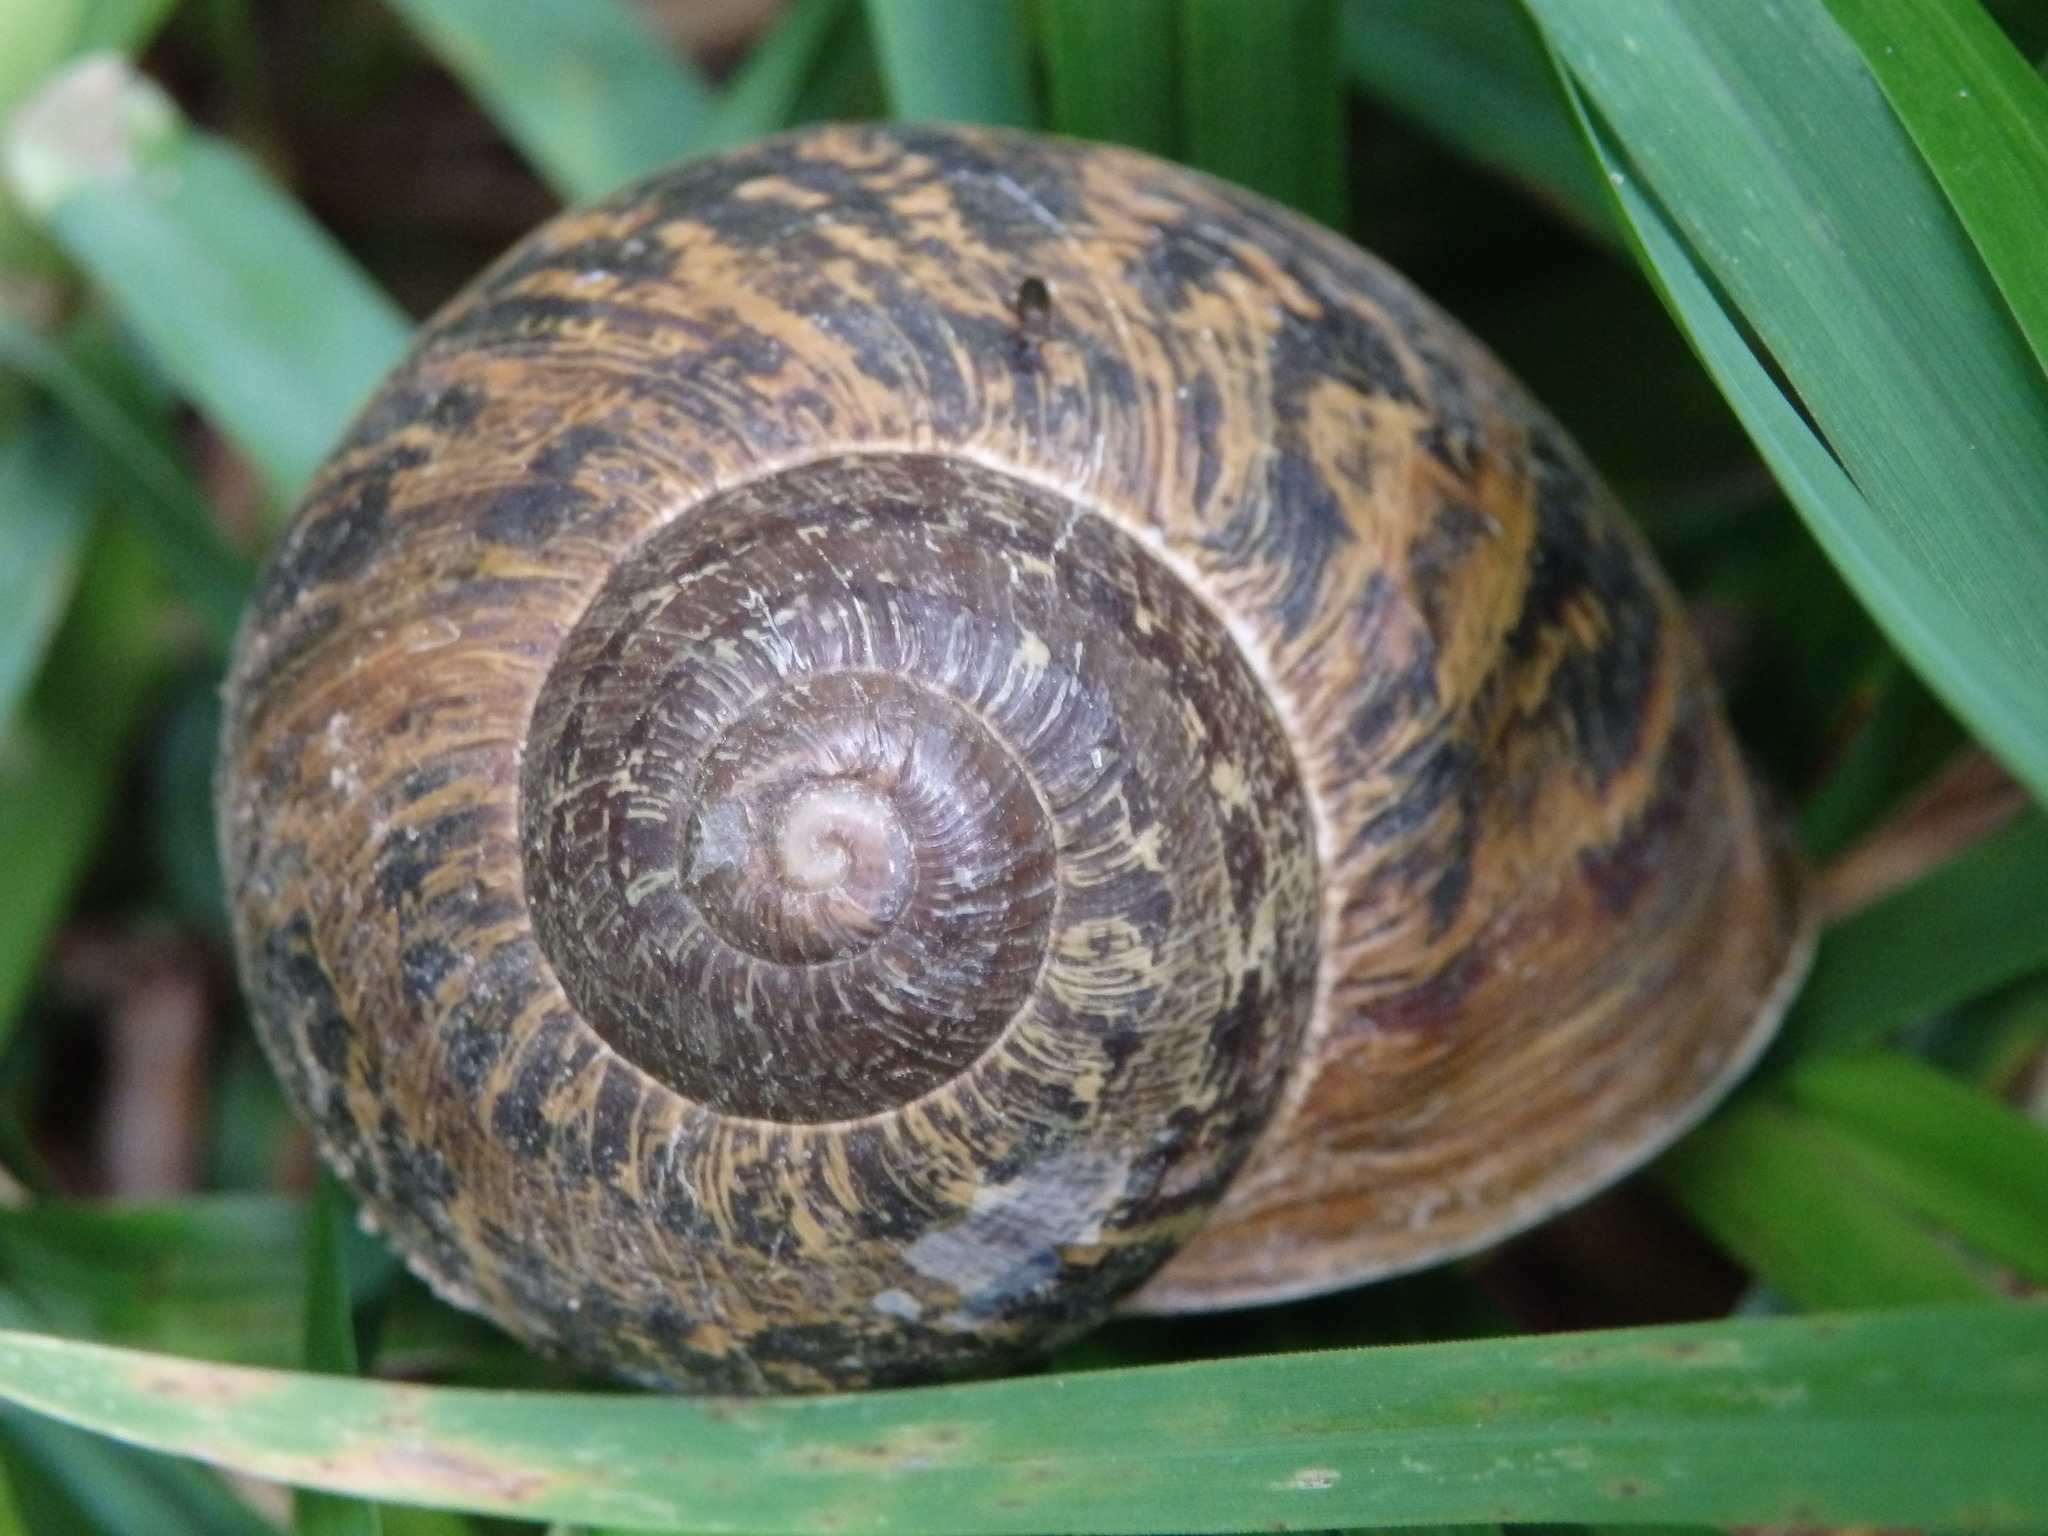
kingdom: Animalia
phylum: Mollusca
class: Gastropoda
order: Stylommatophora
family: Helicidae
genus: Cornu
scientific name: Cornu aspersum
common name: Brown garden snail
